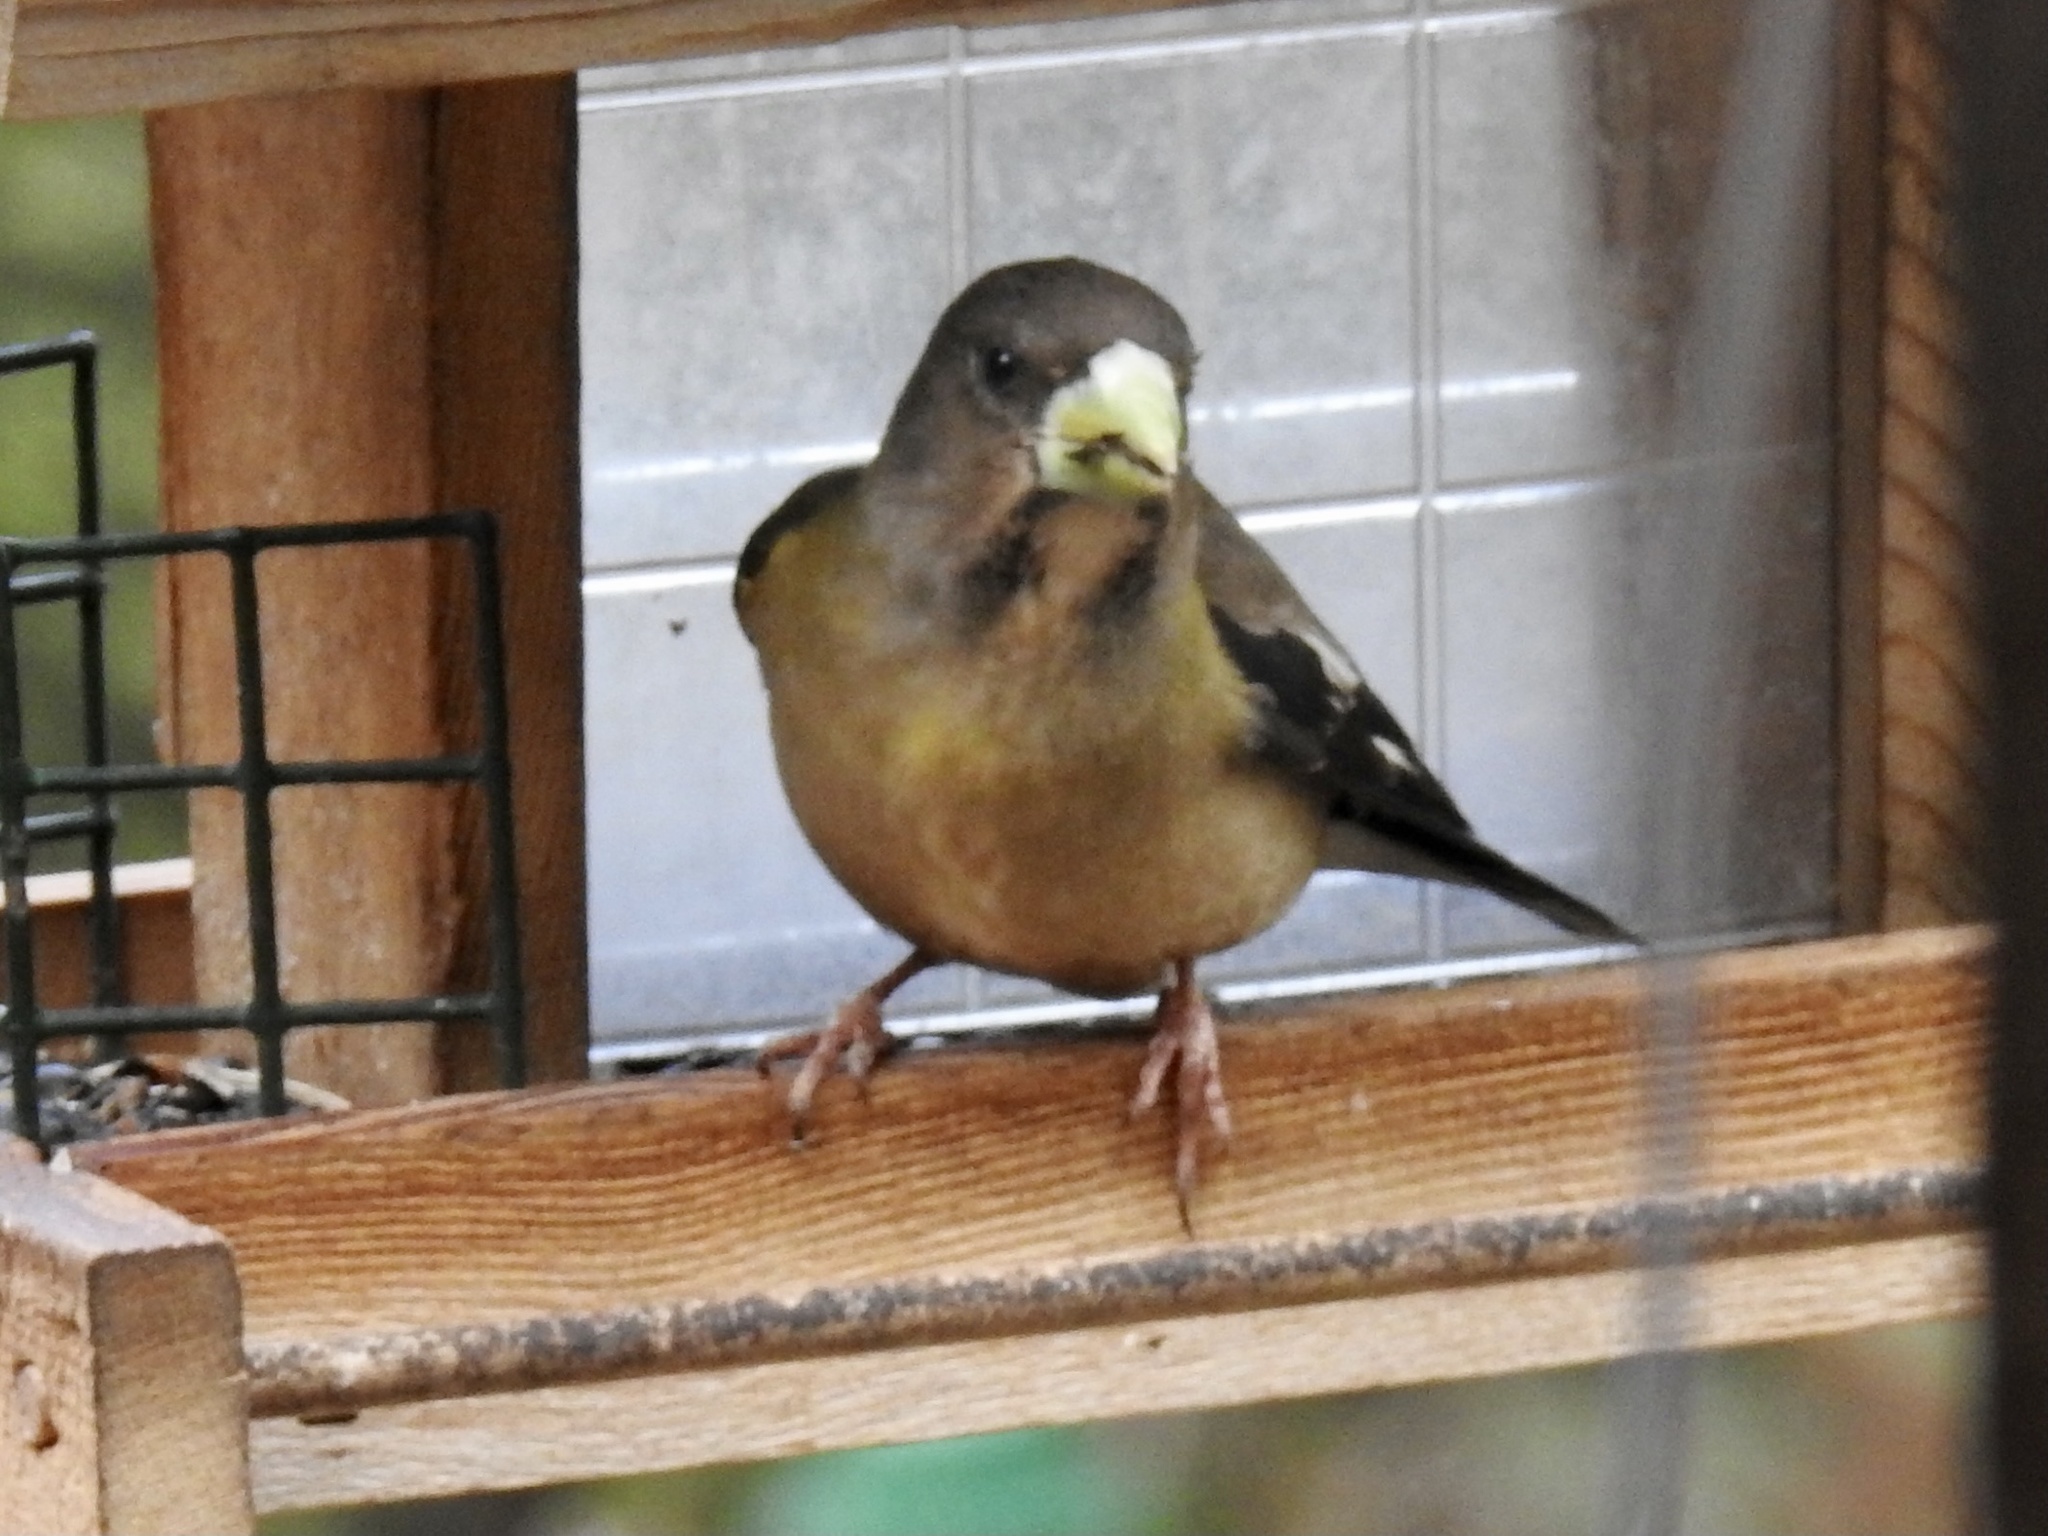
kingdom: Animalia
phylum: Chordata
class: Aves
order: Passeriformes
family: Fringillidae
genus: Hesperiphona
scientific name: Hesperiphona vespertina
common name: Evening grosbeak
